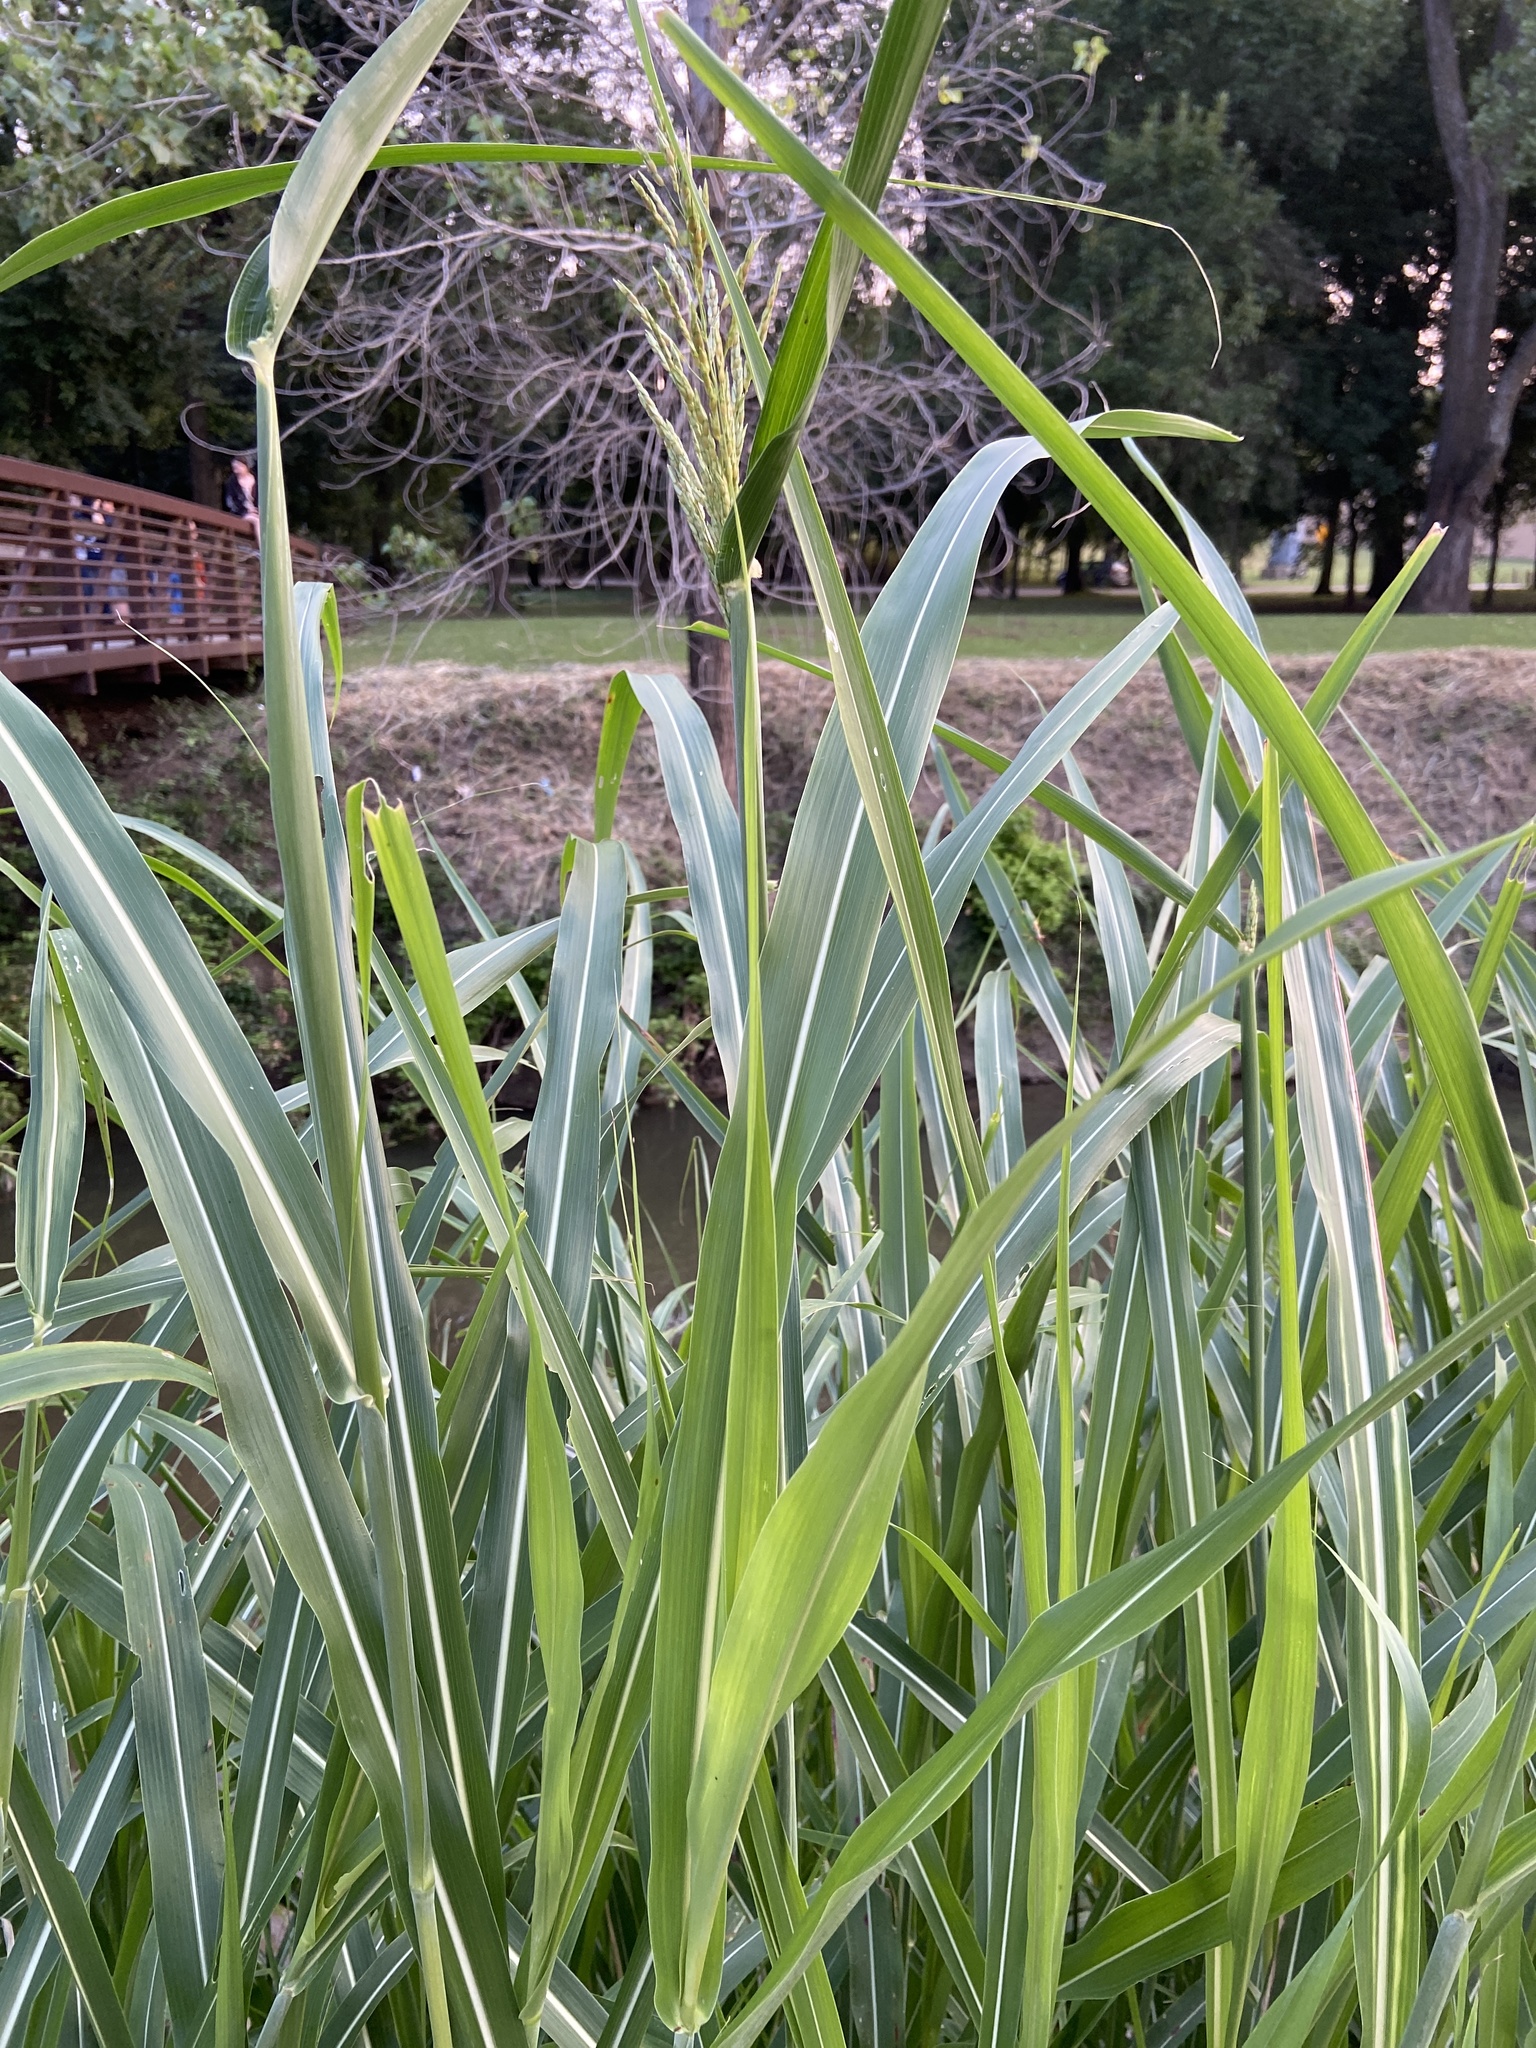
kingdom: Plantae
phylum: Tracheophyta
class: Liliopsida
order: Poales
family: Poaceae
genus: Sorghum
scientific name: Sorghum halepense
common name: Johnson-grass
